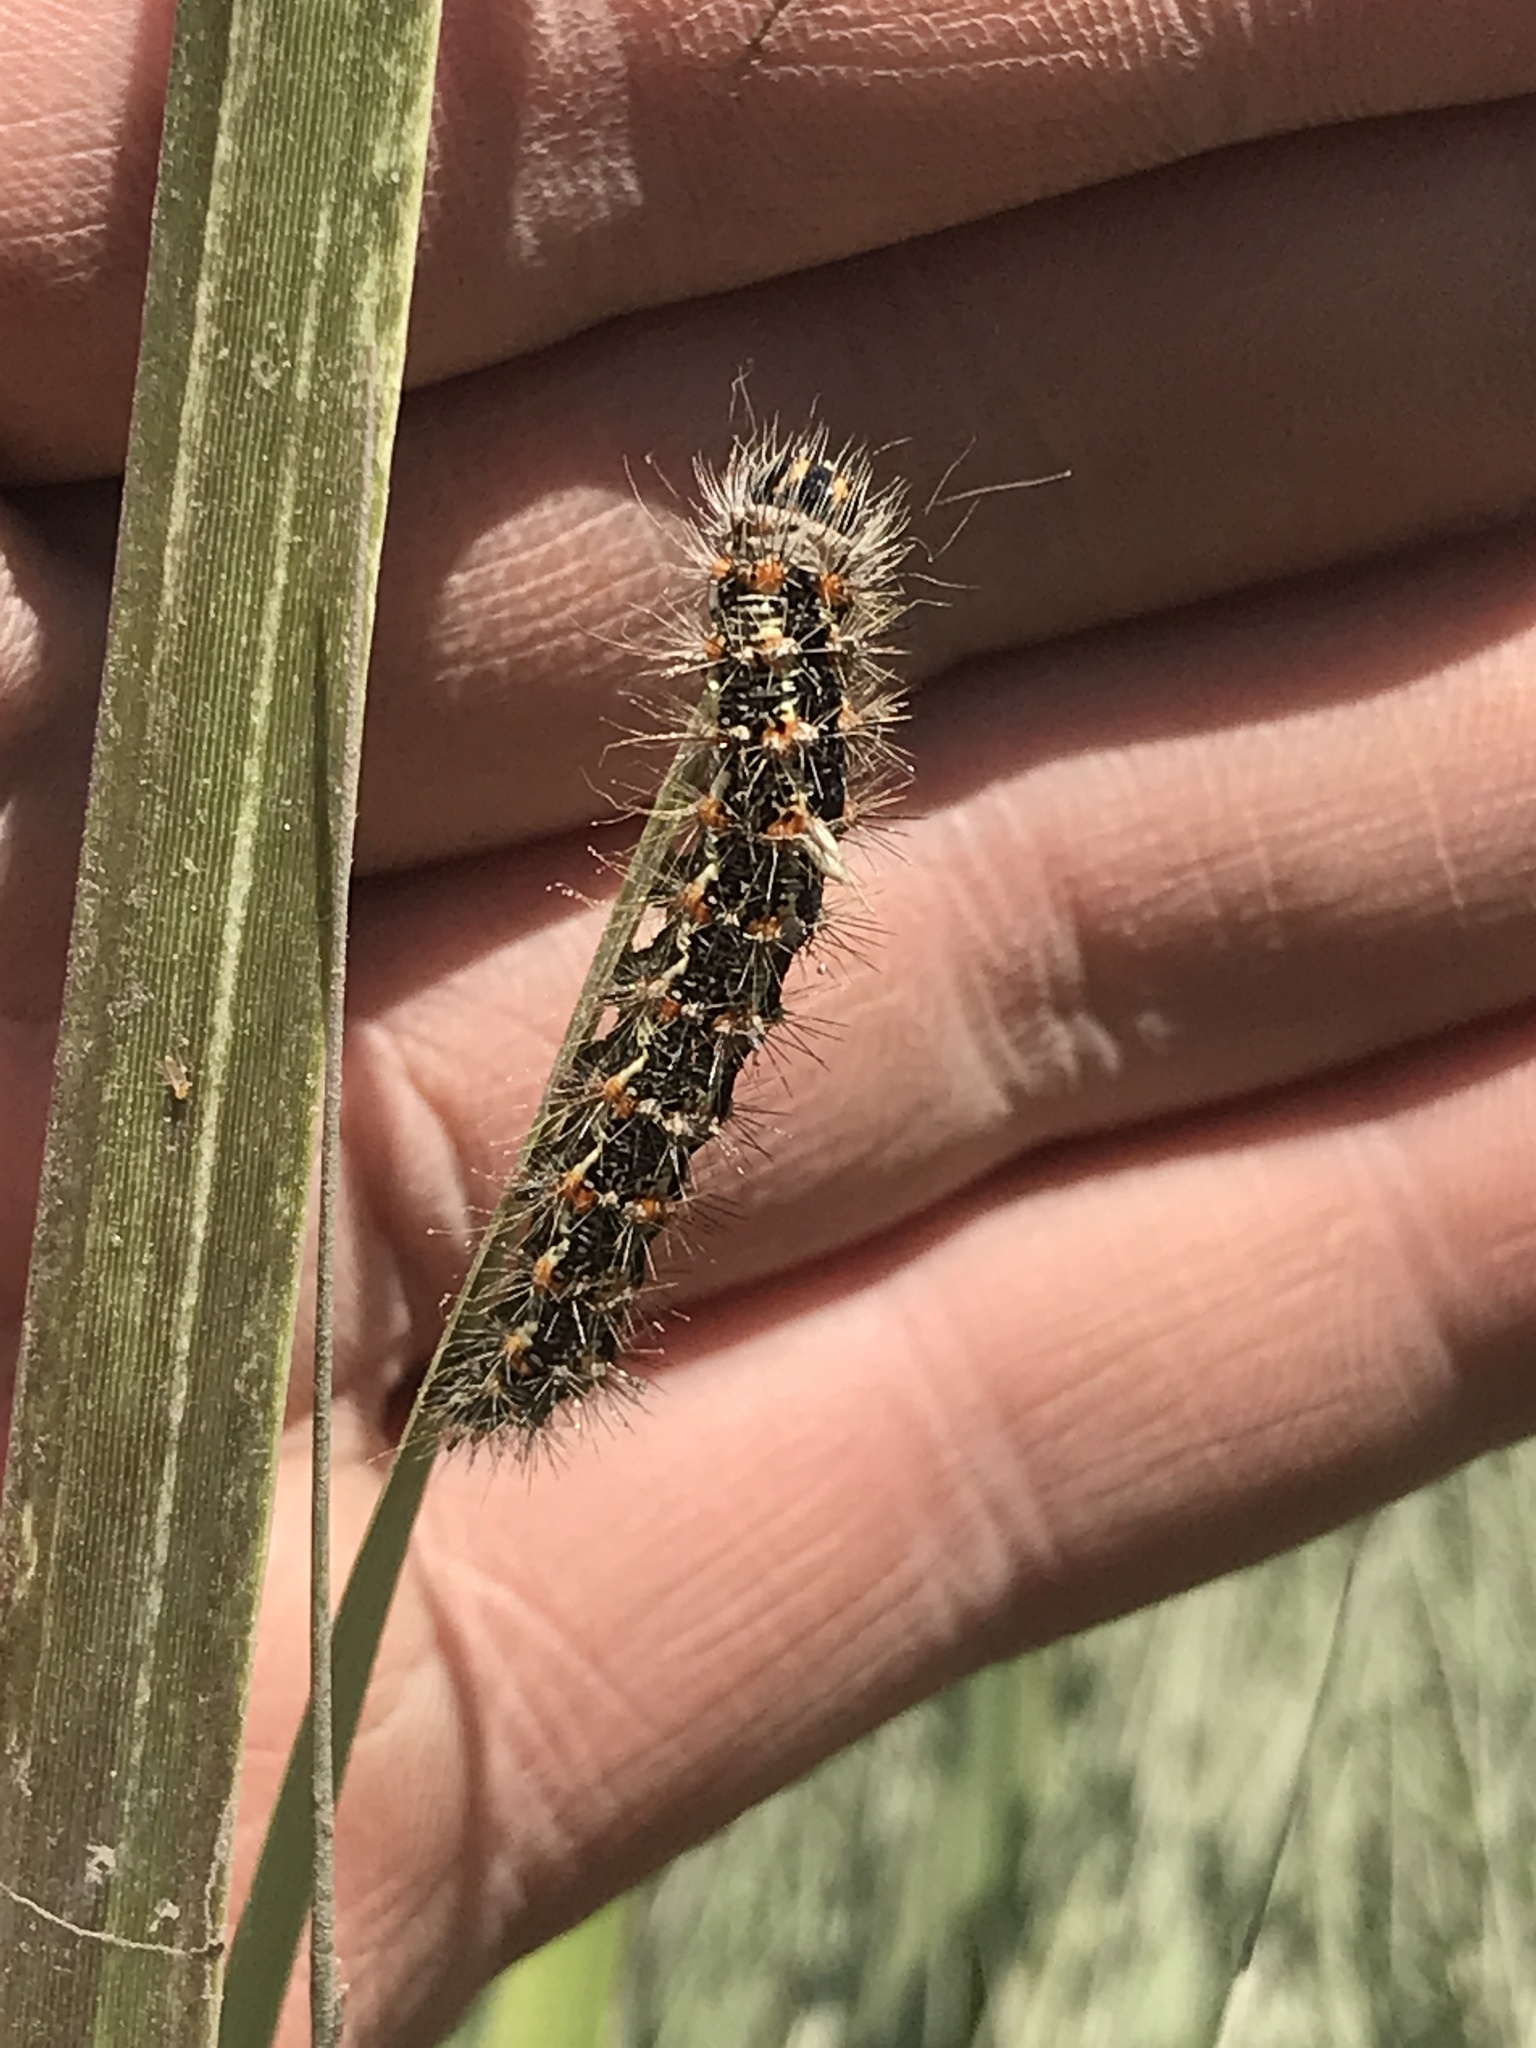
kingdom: Animalia
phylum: Arthropoda
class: Insecta
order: Lepidoptera
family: Noctuidae
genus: Acronicta
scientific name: Acronicta insularis
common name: Henry's marsh moth
